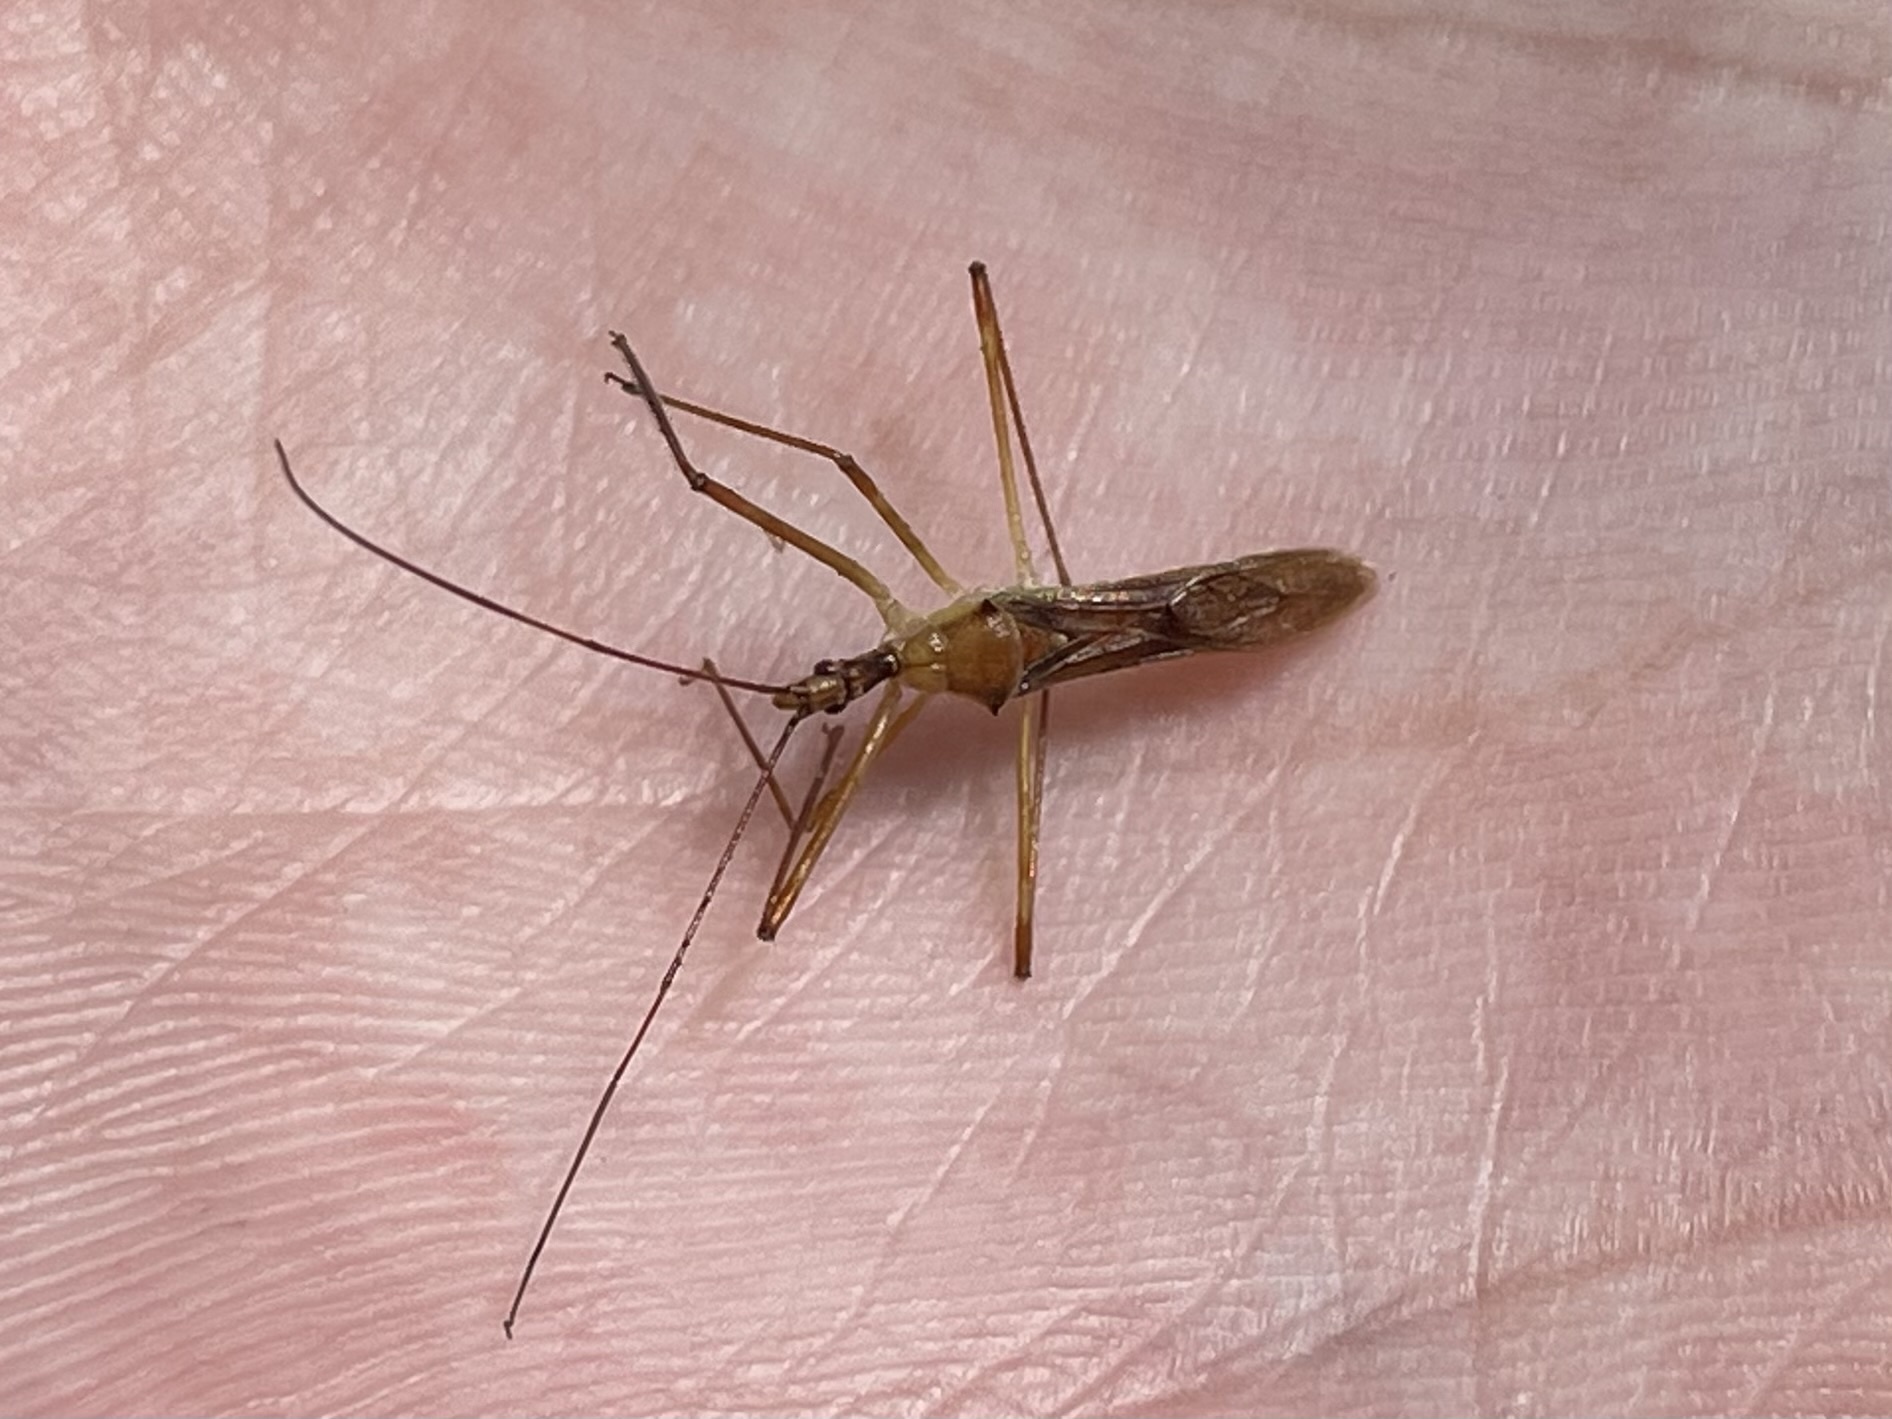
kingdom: Animalia
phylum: Arthropoda
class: Insecta
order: Hemiptera
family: Reduviidae
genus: Zelus
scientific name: Zelus cervicalis
